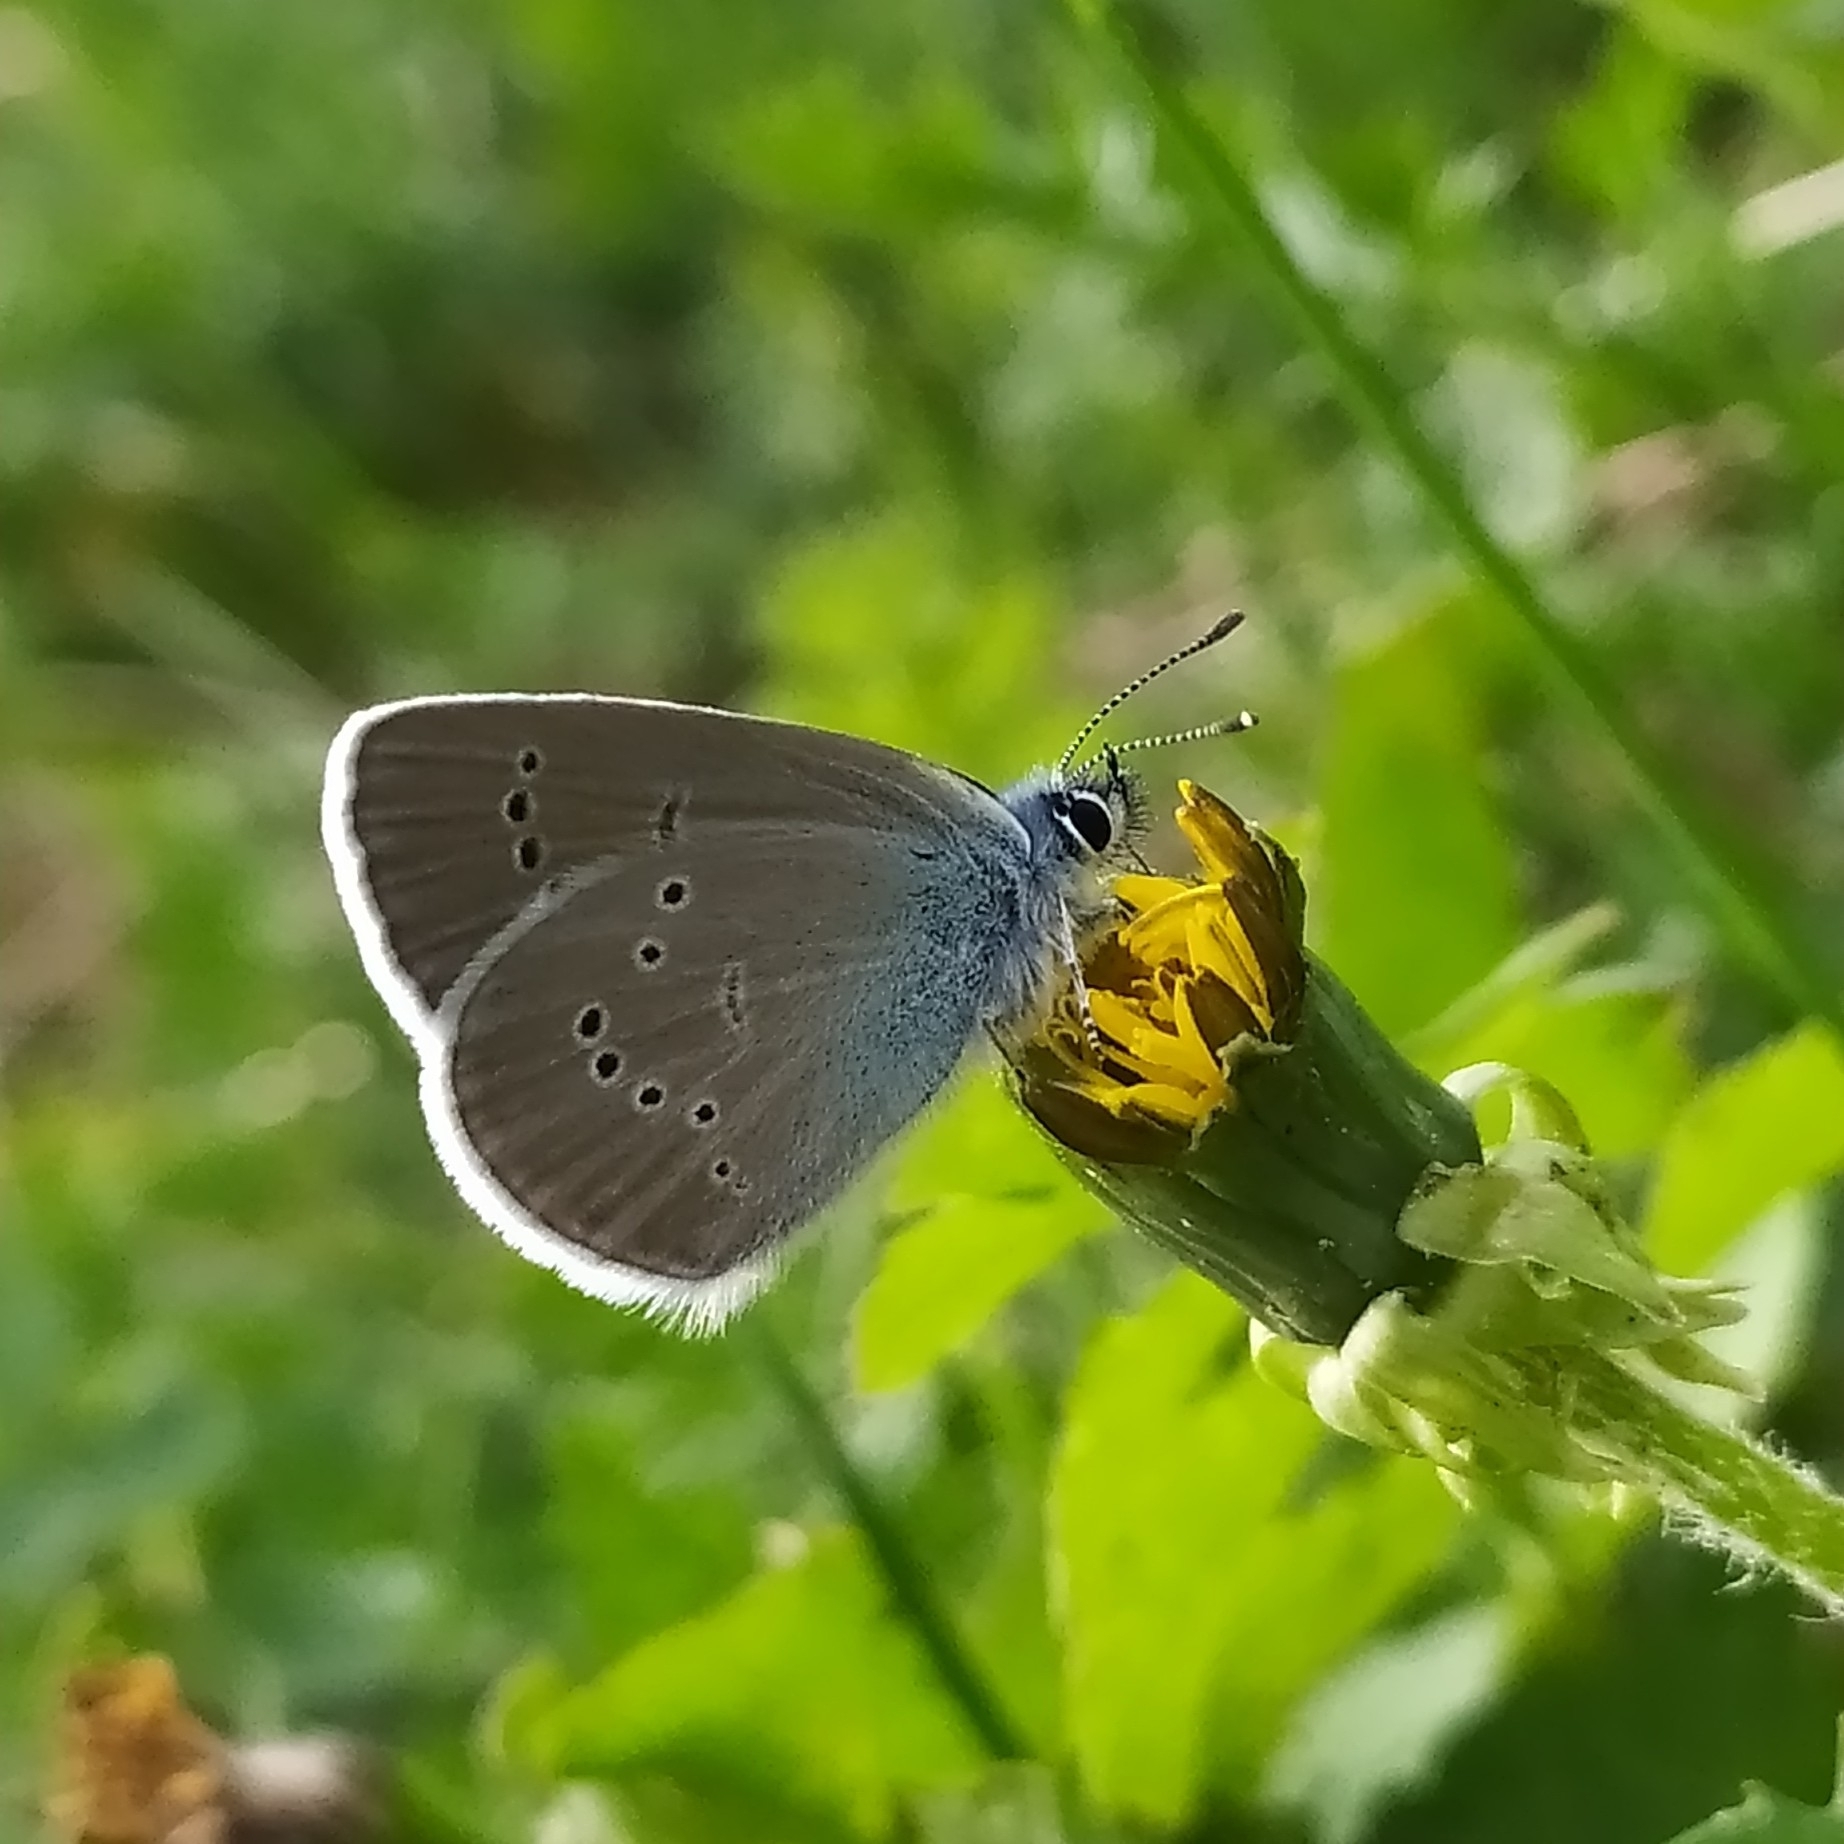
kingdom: Animalia
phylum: Arthropoda
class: Insecta
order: Lepidoptera
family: Lycaenidae
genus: Cyaniris
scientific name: Cyaniris semiargus
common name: Mazarine blue
